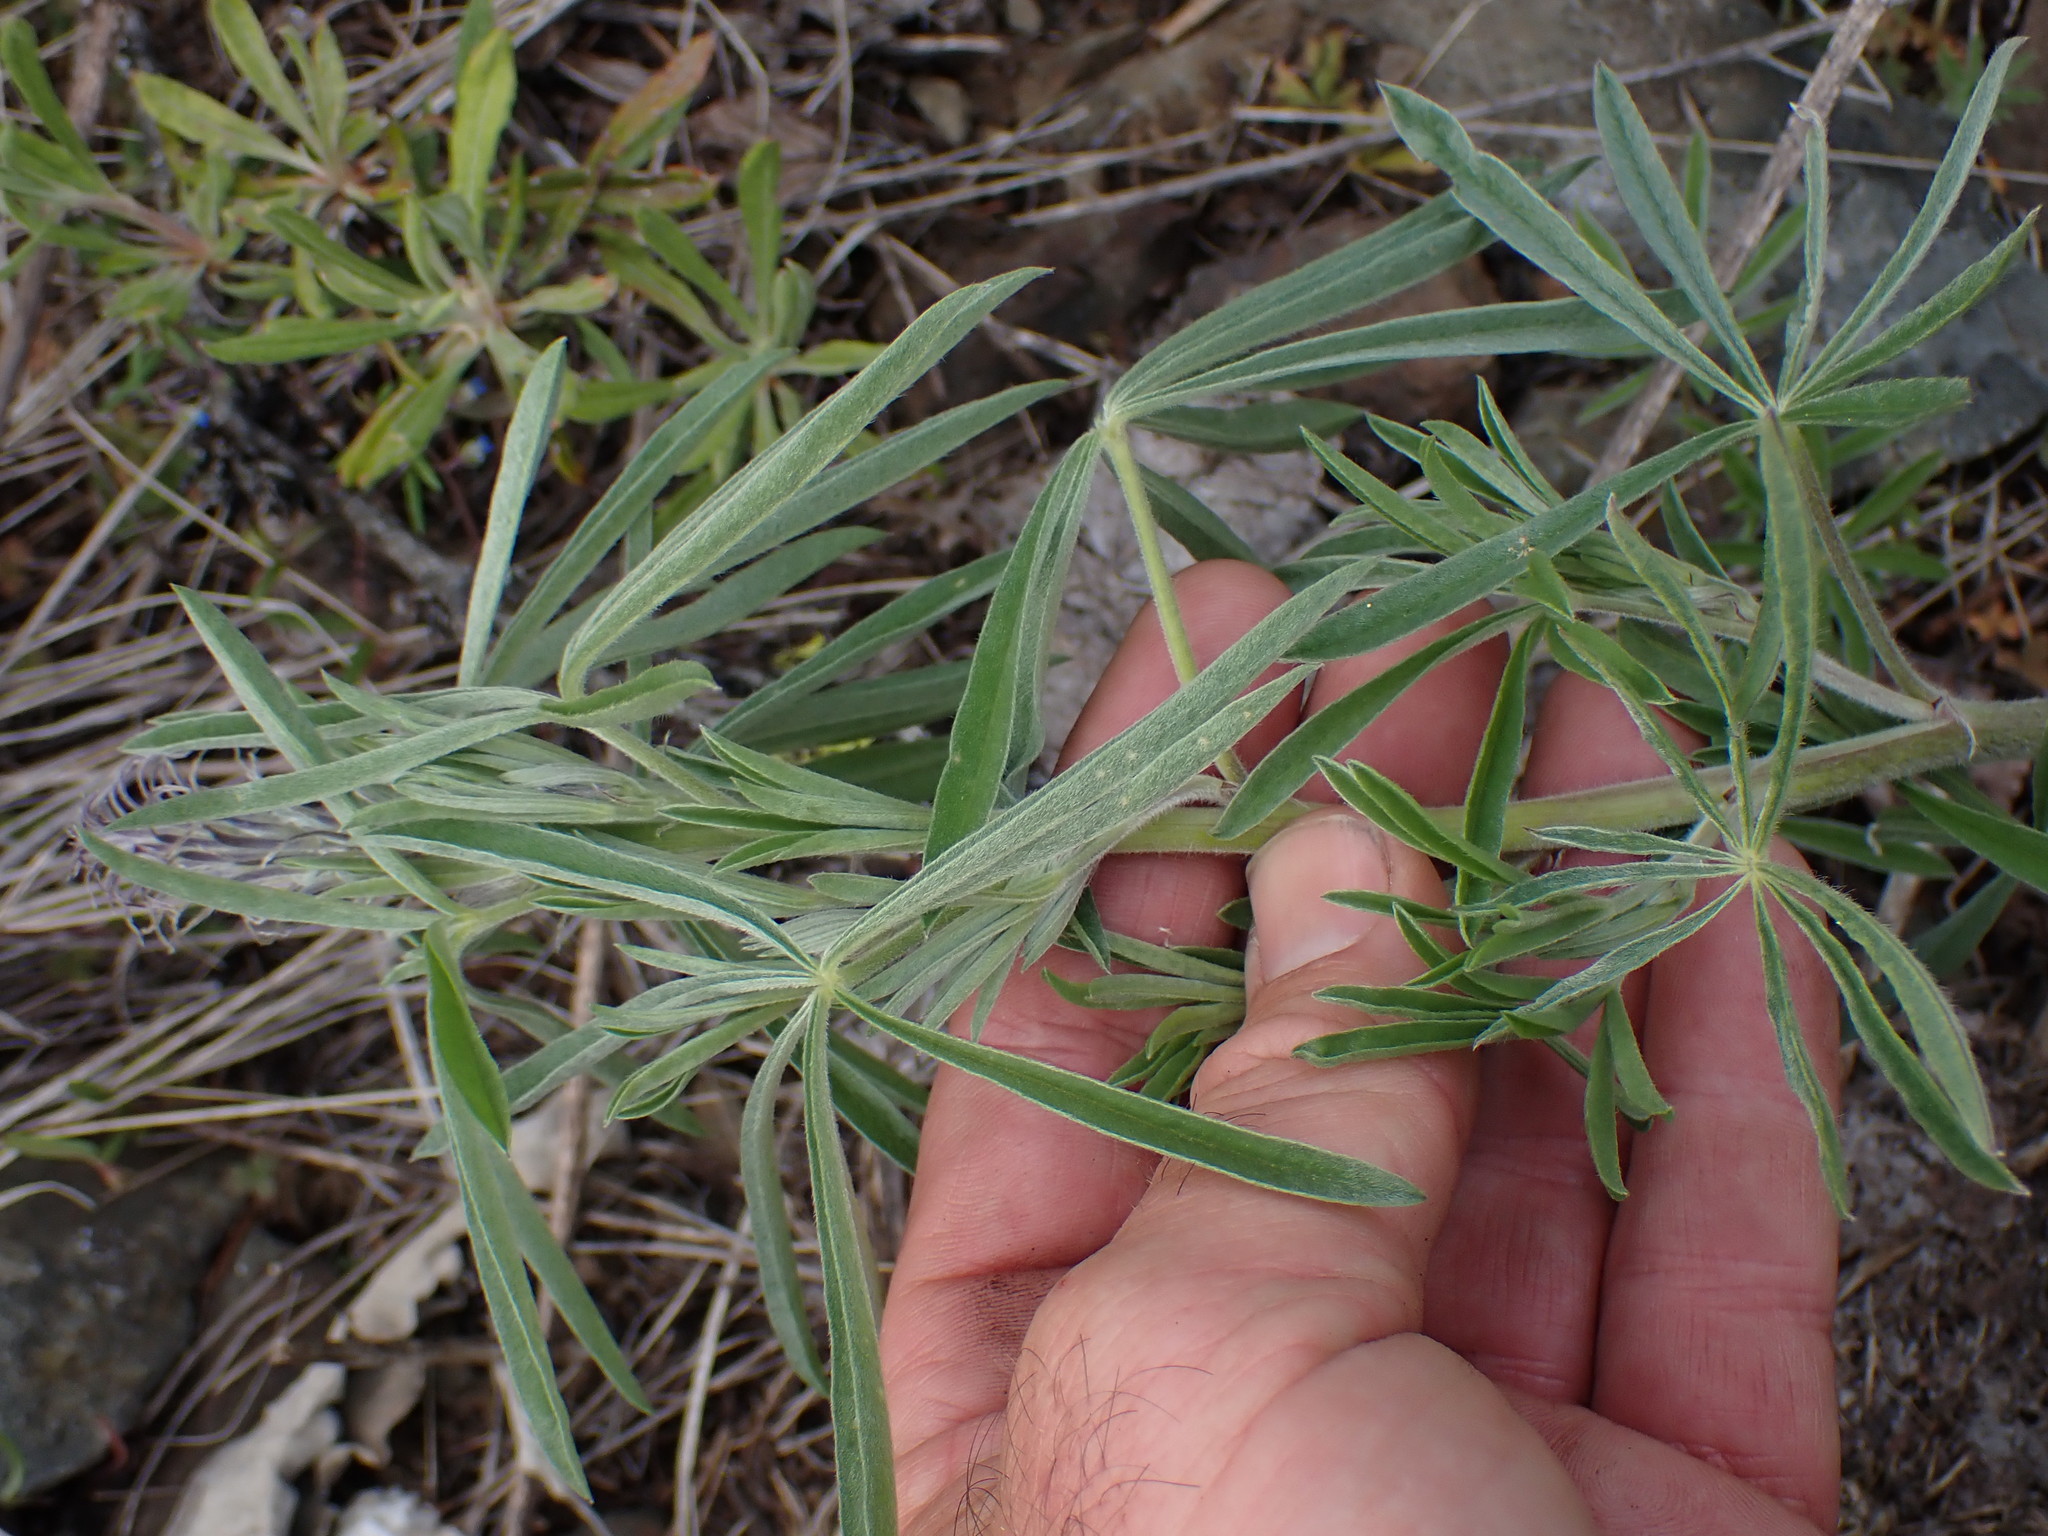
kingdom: Plantae
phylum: Tracheophyta
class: Magnoliopsida
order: Fabales
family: Fabaceae
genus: Lupinus
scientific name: Lupinus sericeus
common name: Silky lupine
